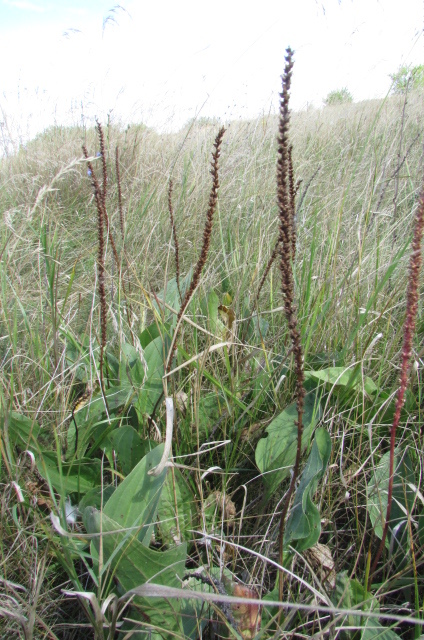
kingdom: Plantae
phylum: Tracheophyta
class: Magnoliopsida
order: Lamiales
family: Plantaginaceae
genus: Plantago
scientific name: Plantago cornuti
